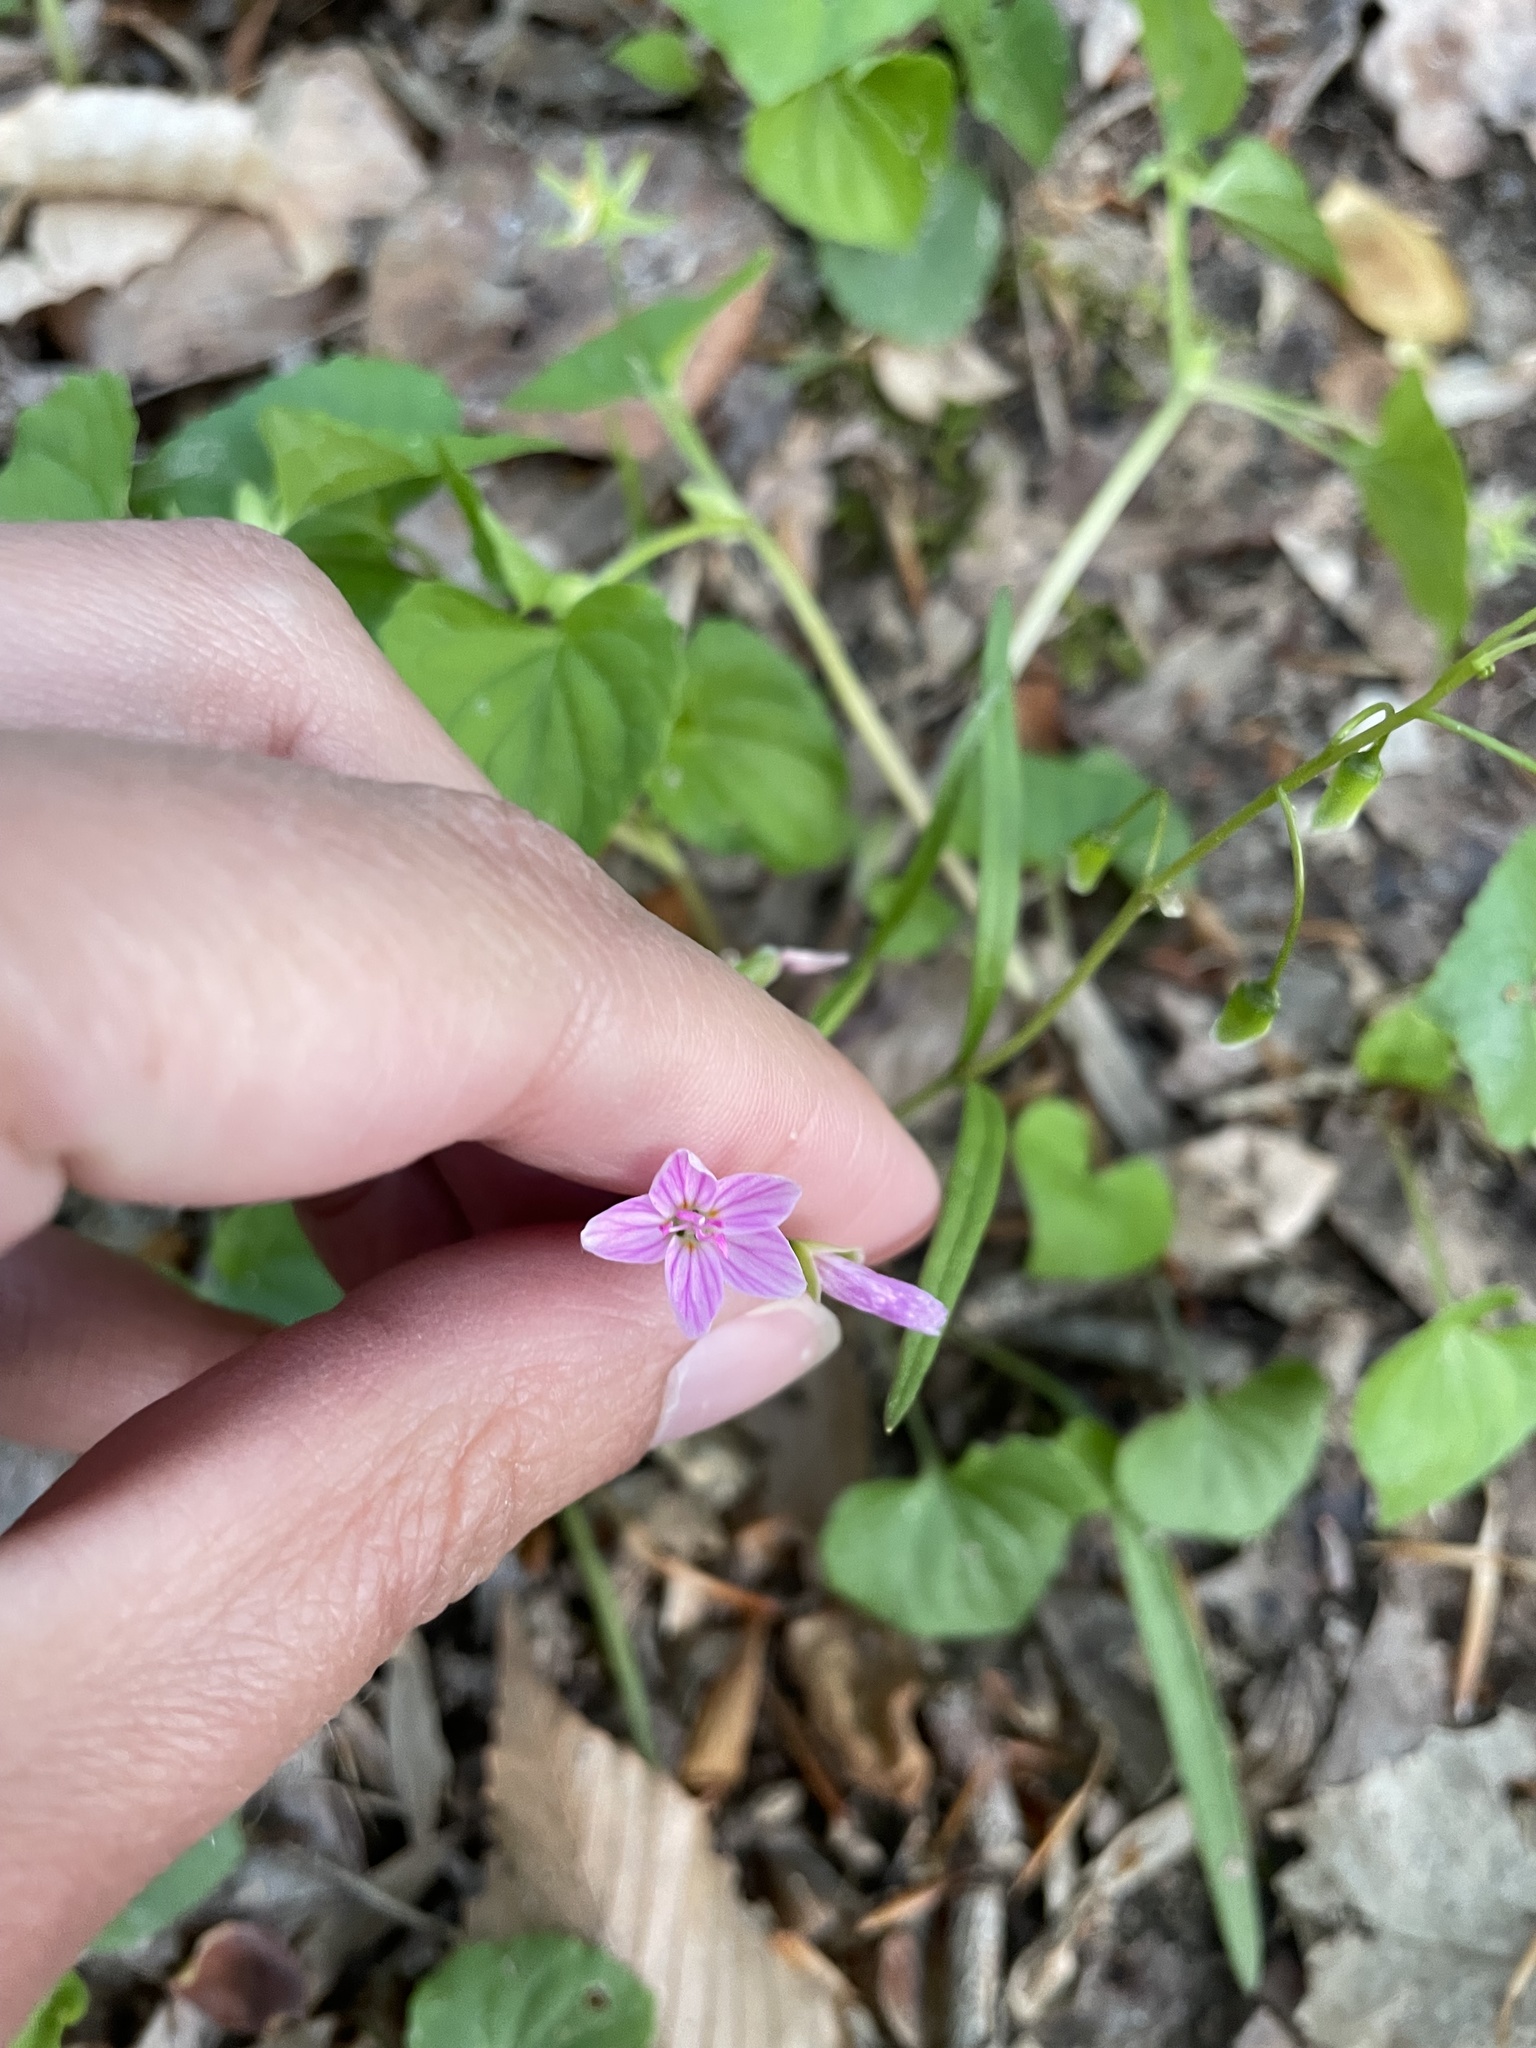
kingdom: Plantae
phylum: Tracheophyta
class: Magnoliopsida
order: Caryophyllales
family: Montiaceae
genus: Claytonia
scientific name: Claytonia virginica
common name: Virginia springbeauty
